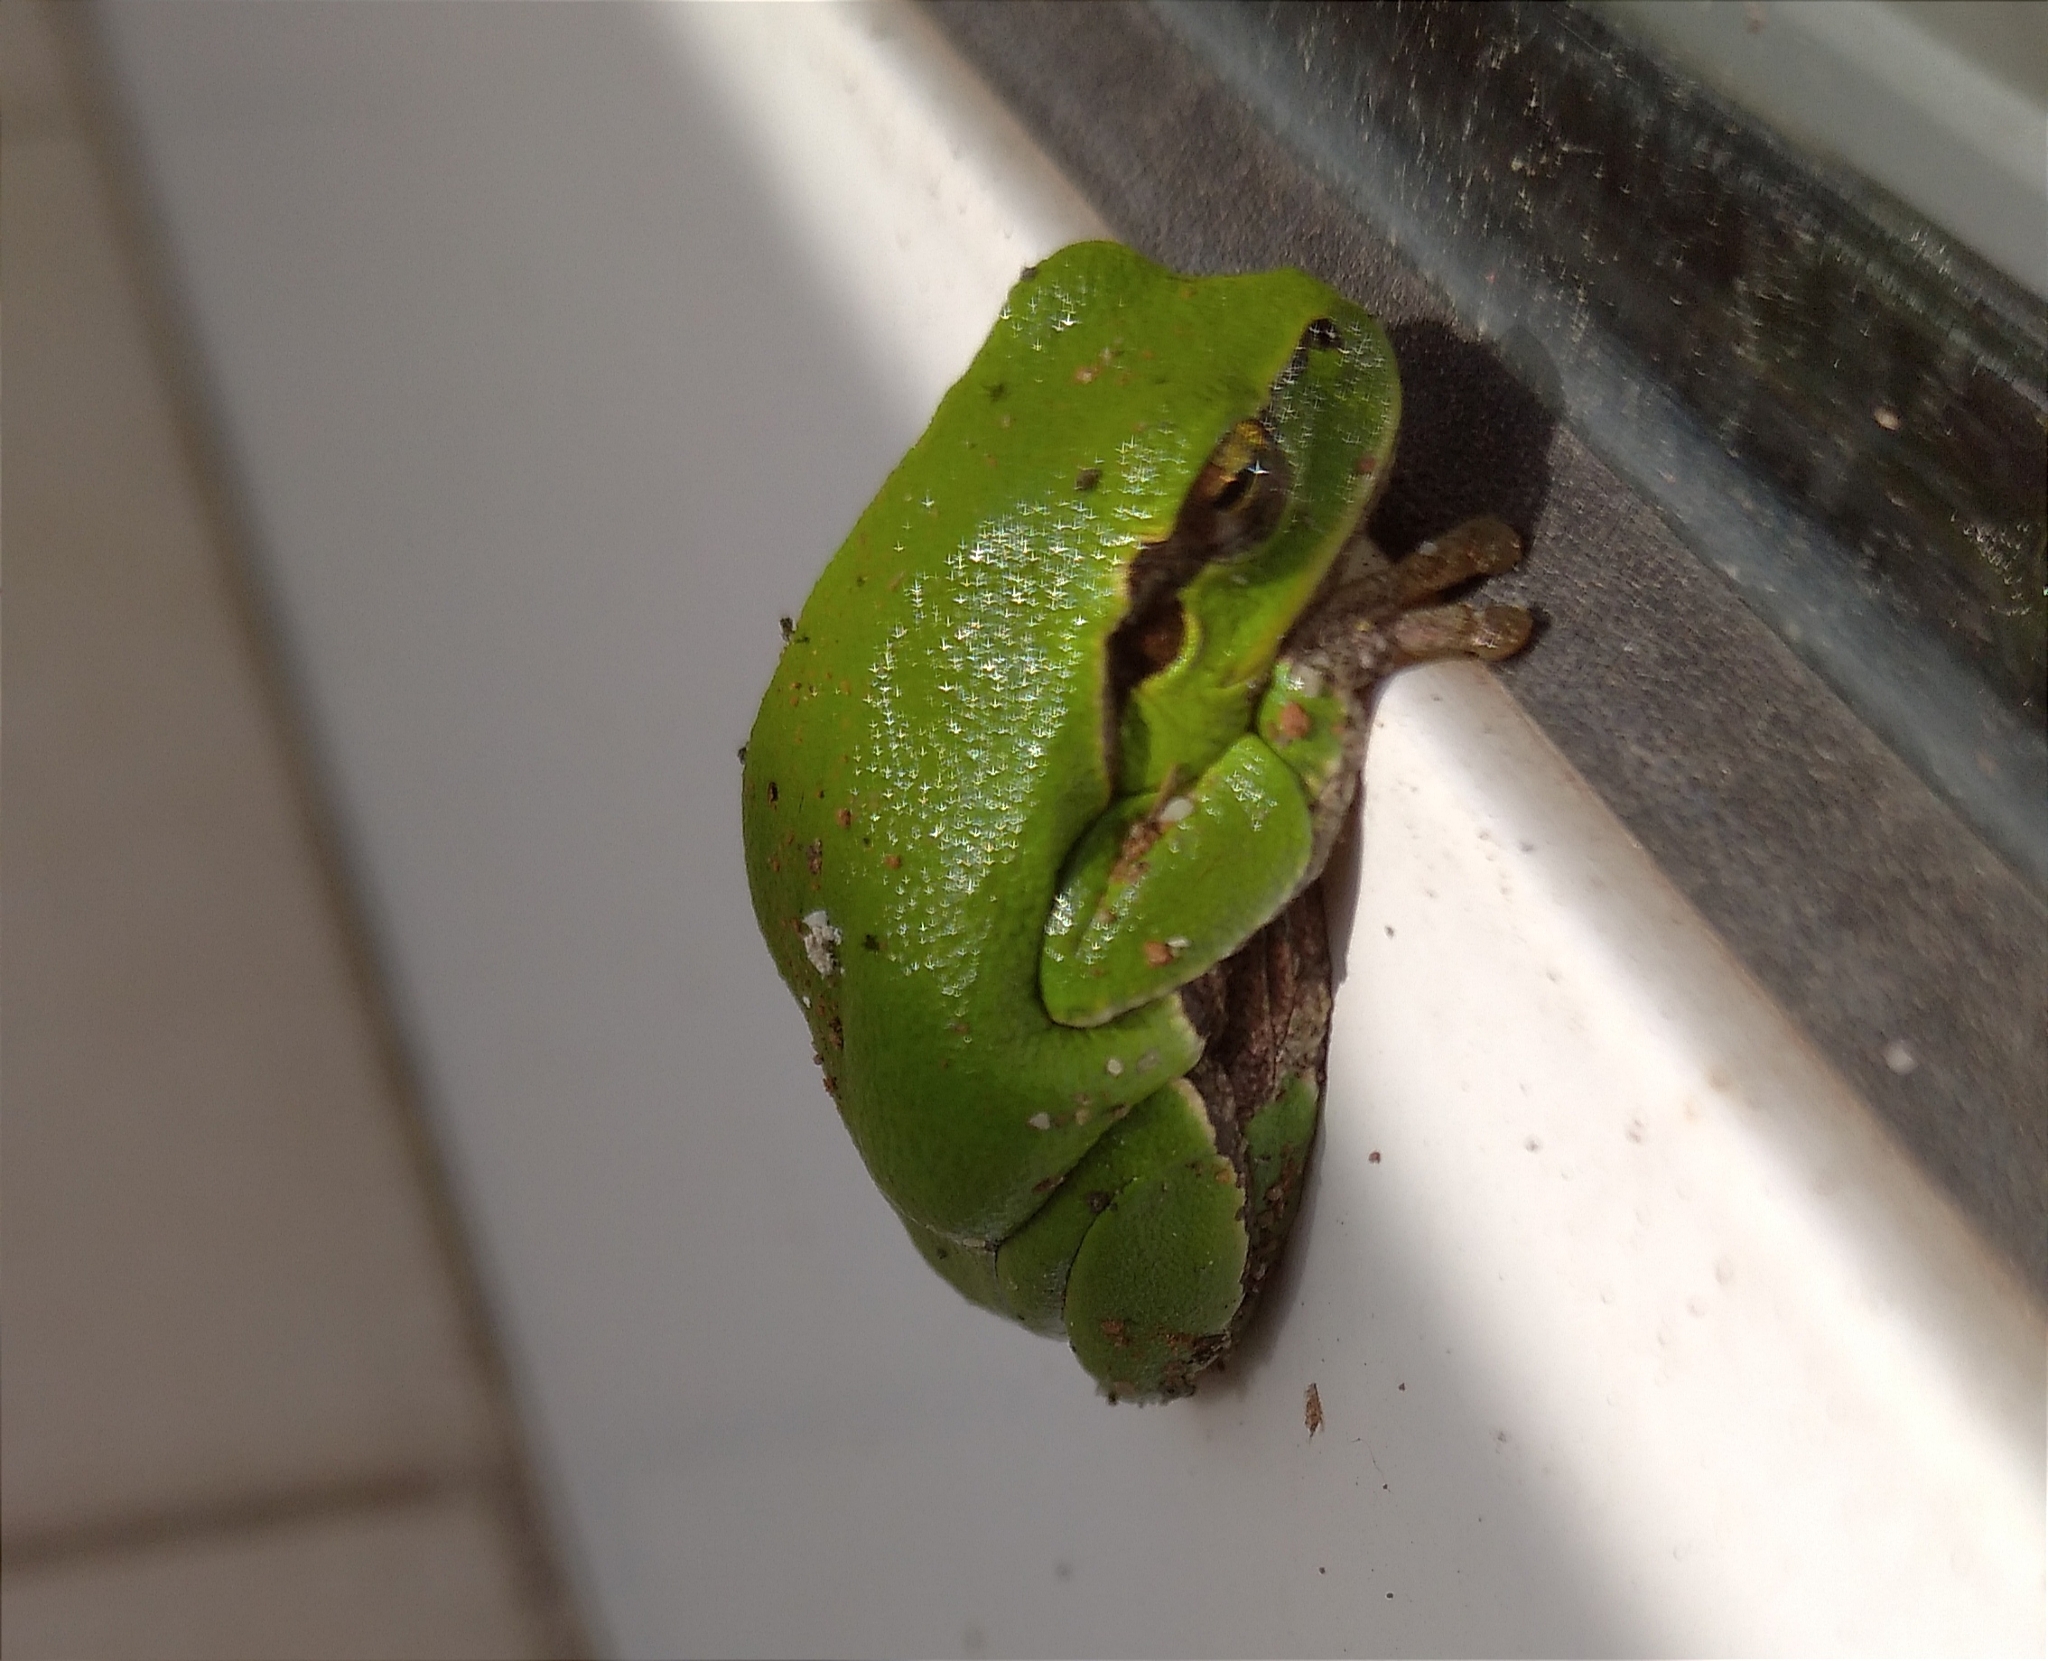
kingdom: Animalia
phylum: Chordata
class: Amphibia
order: Anura
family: Hylidae
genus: Hyla
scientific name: Hyla orientalis
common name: Caucasian treefrog
